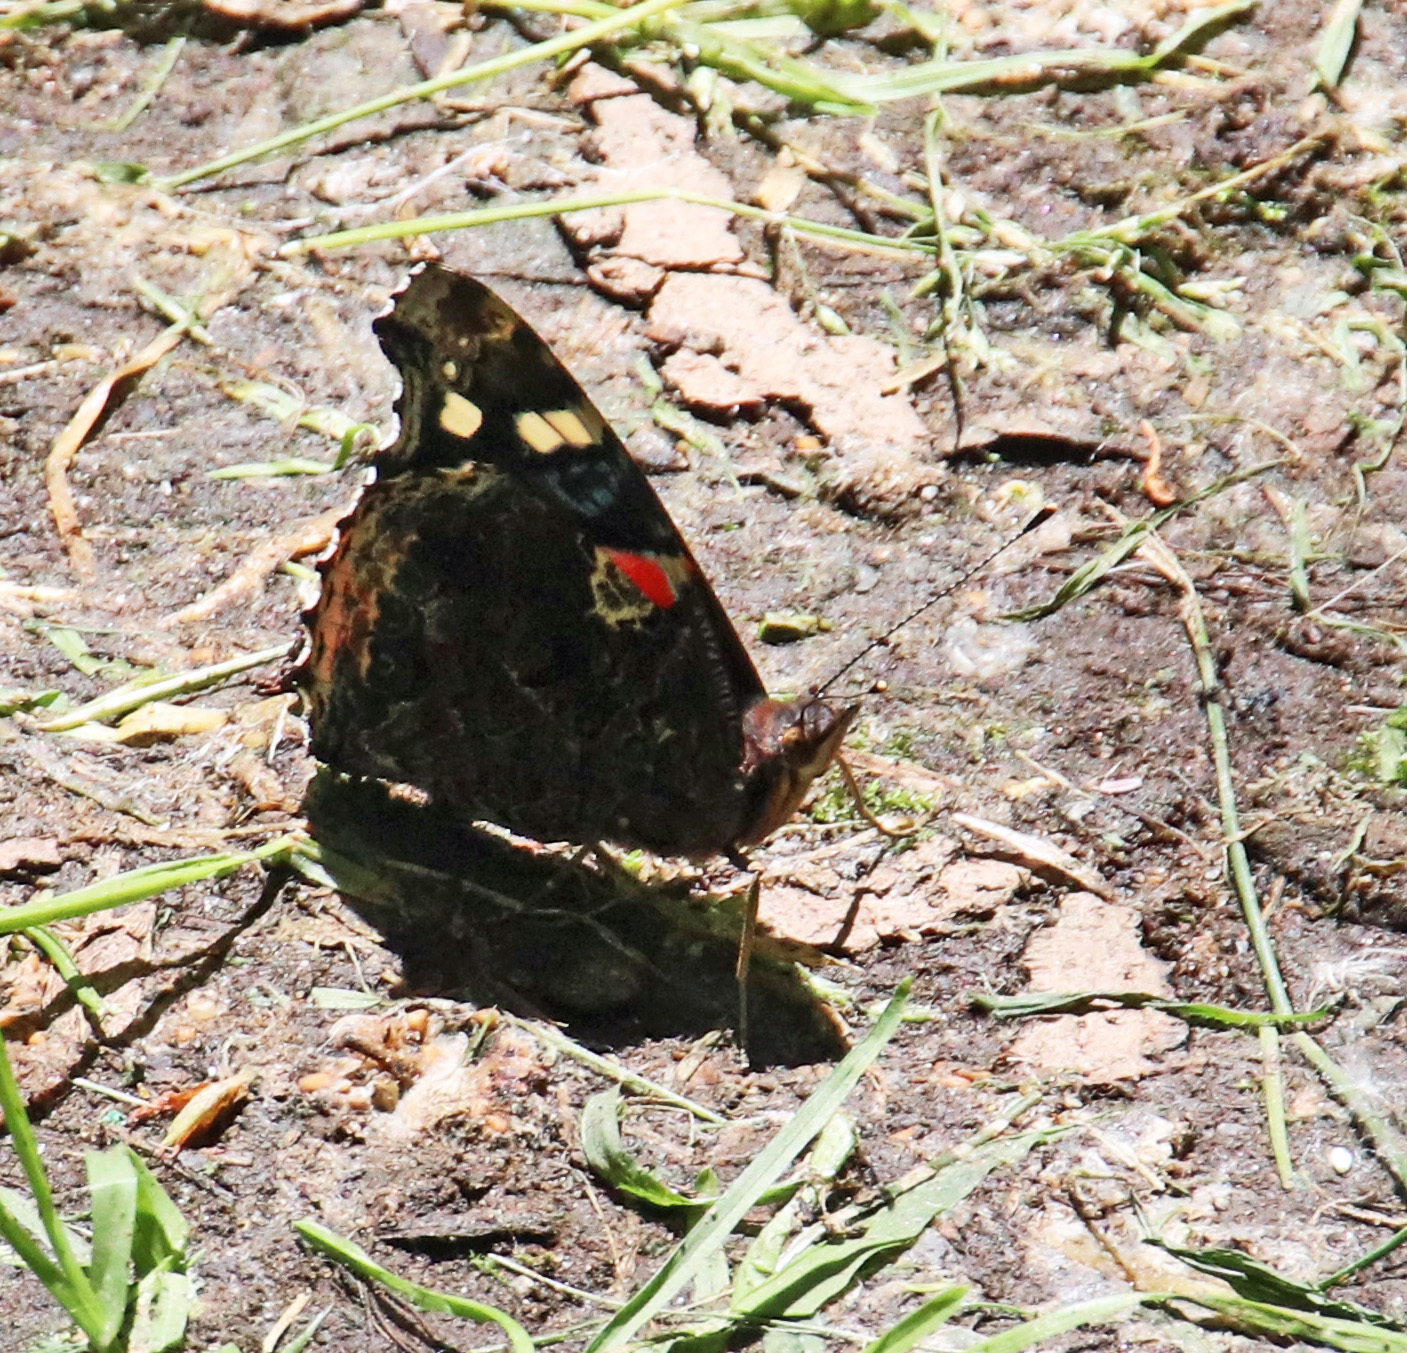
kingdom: Animalia
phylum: Arthropoda
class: Insecta
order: Lepidoptera
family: Nymphalidae
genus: Vanessa
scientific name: Vanessa atalanta
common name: Red admiral
